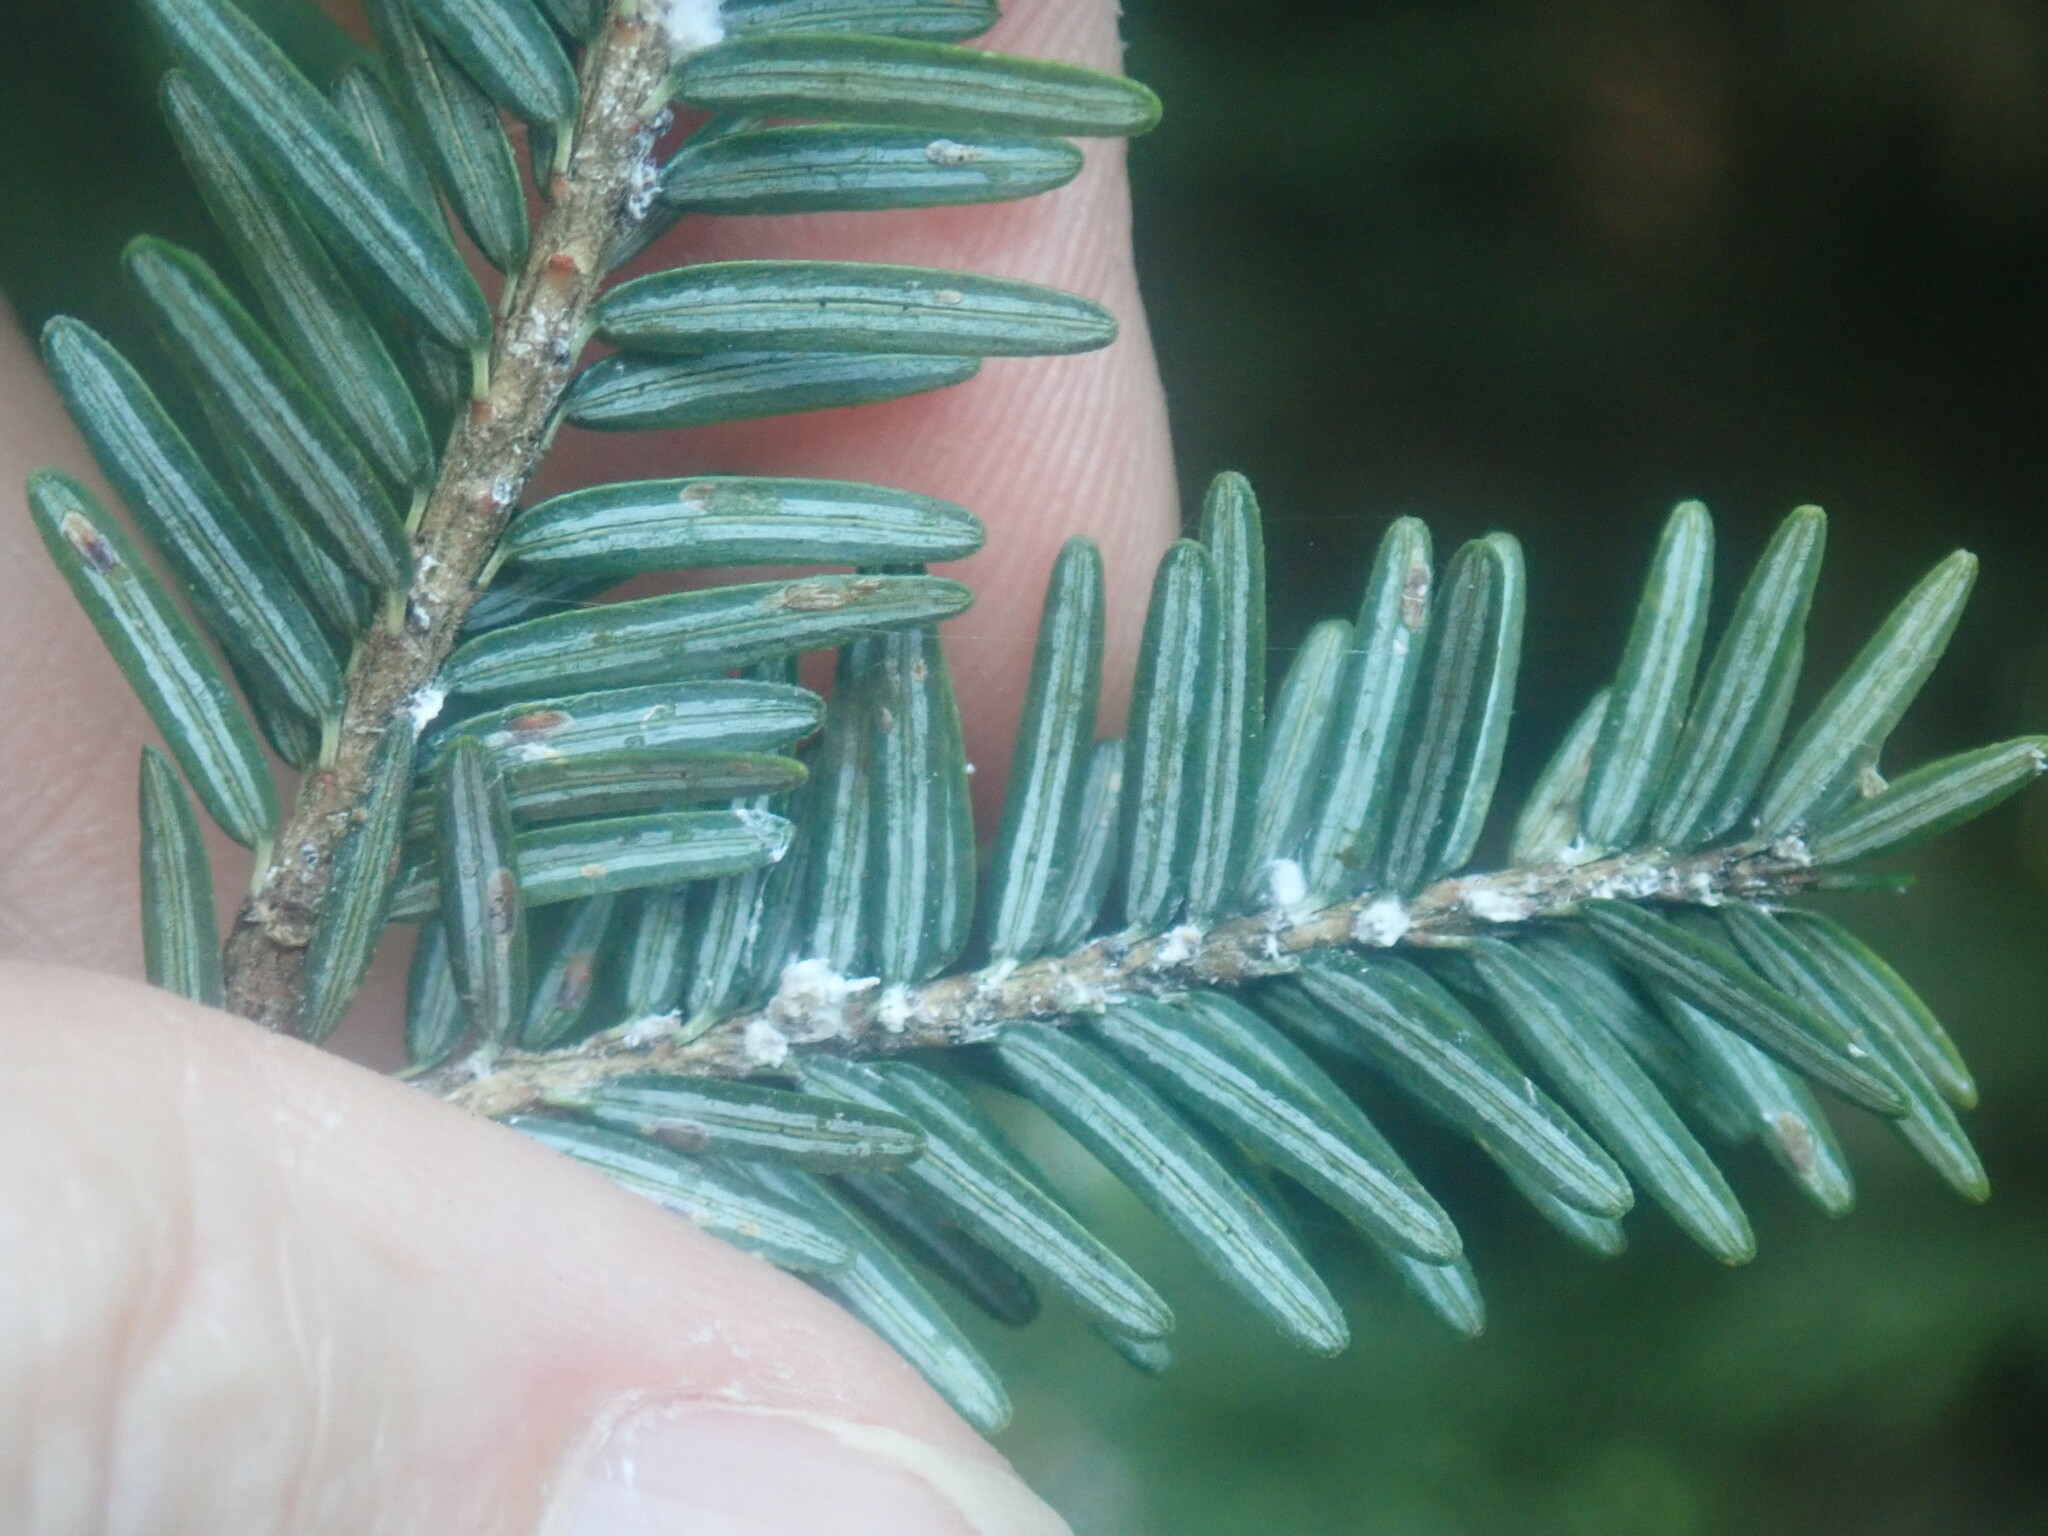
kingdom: Animalia
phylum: Arthropoda
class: Insecta
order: Hemiptera
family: Adelgidae
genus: Adelges
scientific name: Adelges tsugae
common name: Hemlock woolly adelgid
